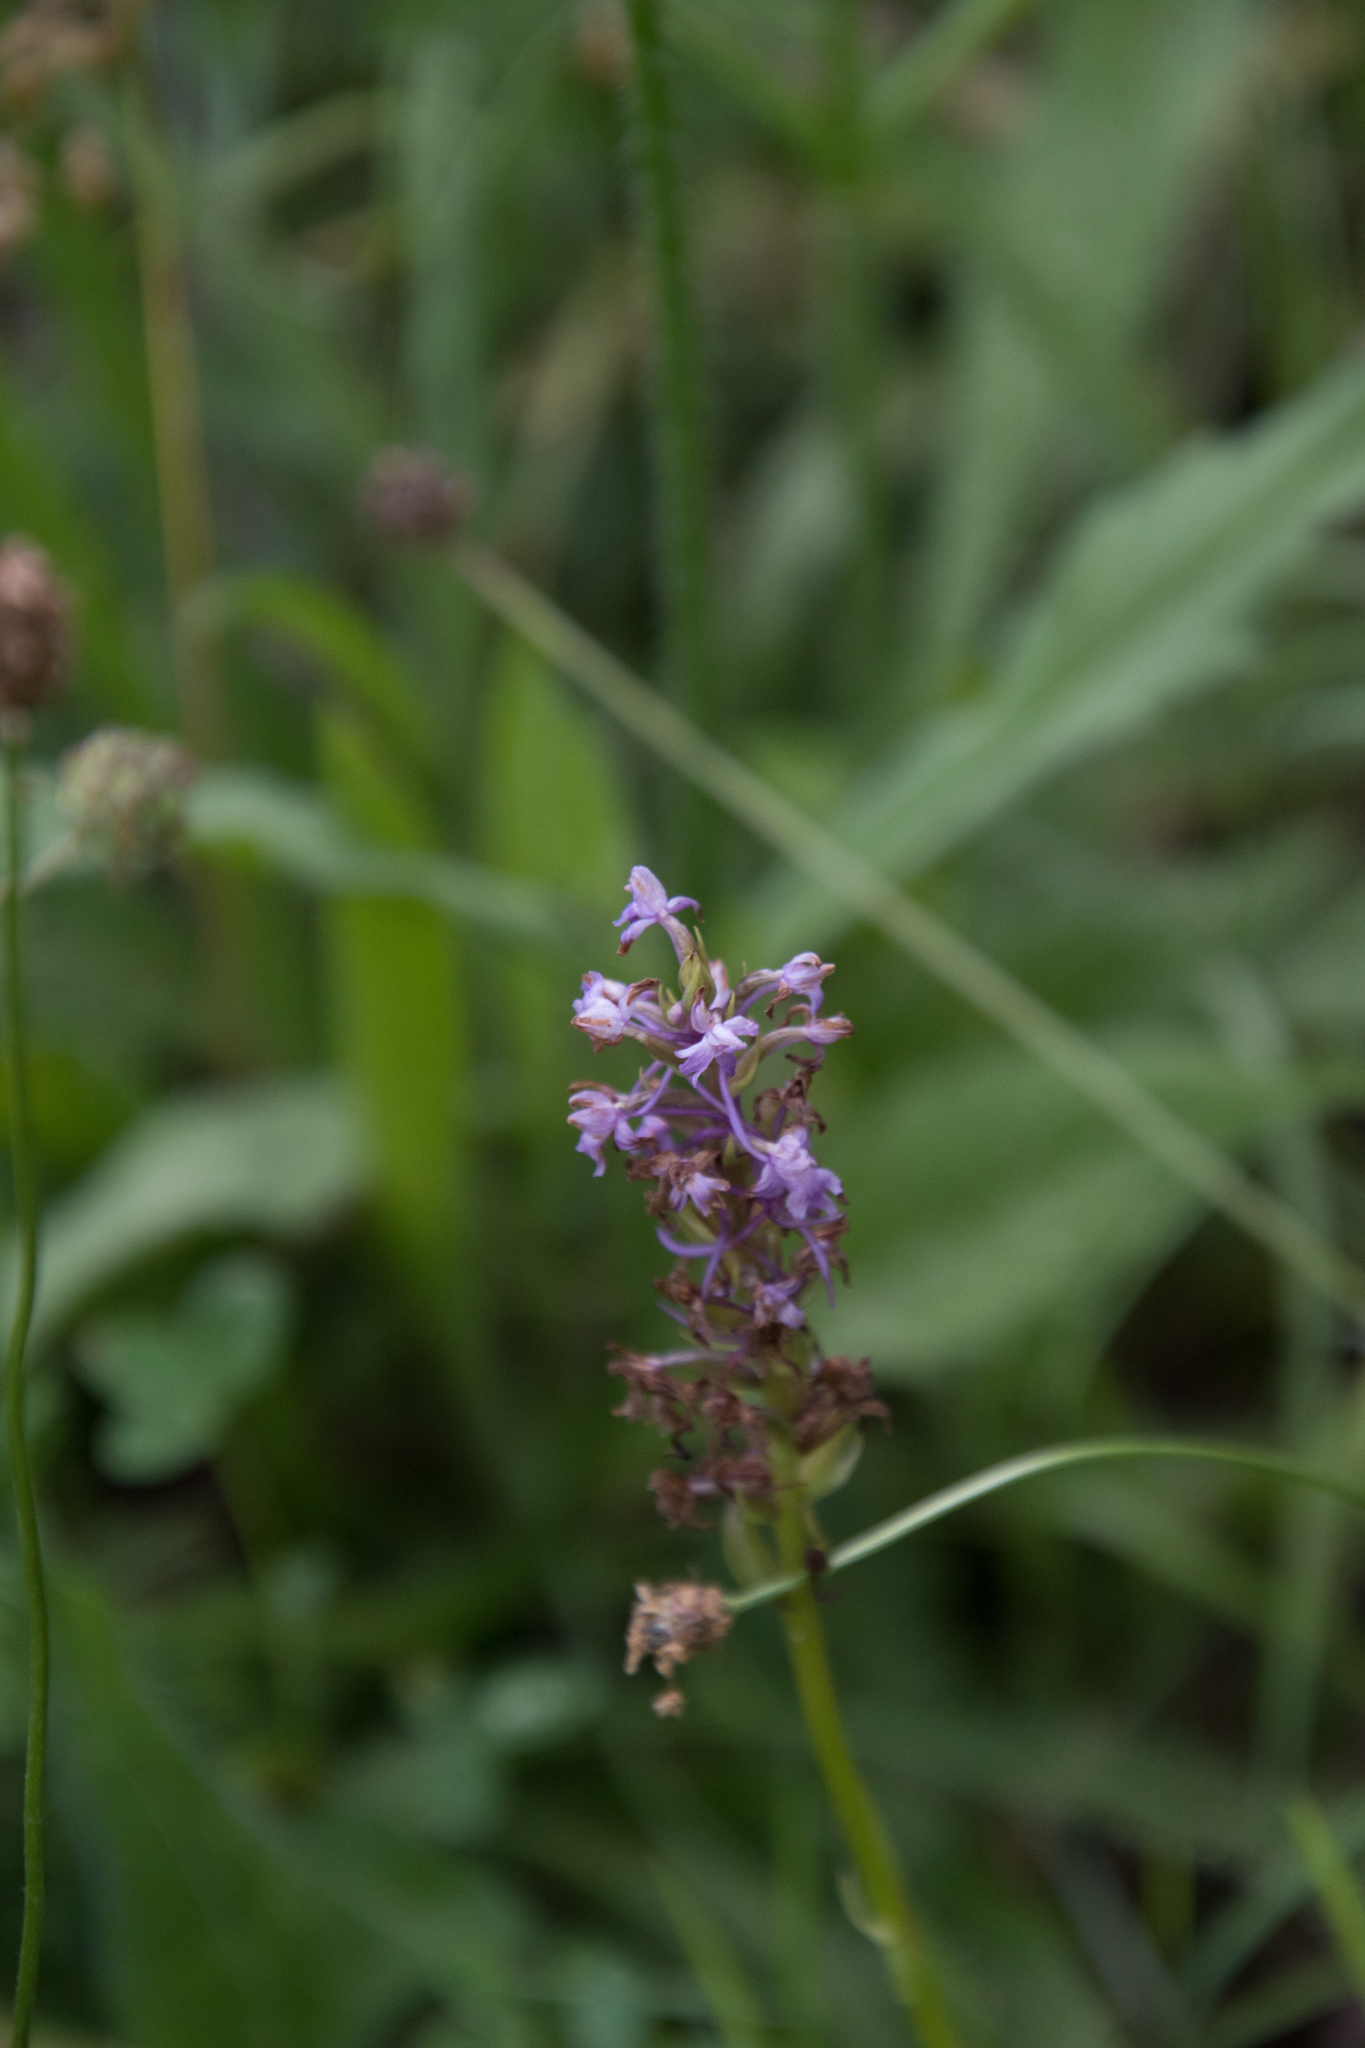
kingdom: Plantae
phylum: Tracheophyta
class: Liliopsida
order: Asparagales
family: Orchidaceae
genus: Gymnadenia
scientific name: Gymnadenia conopsea
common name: Fragrant orchid
